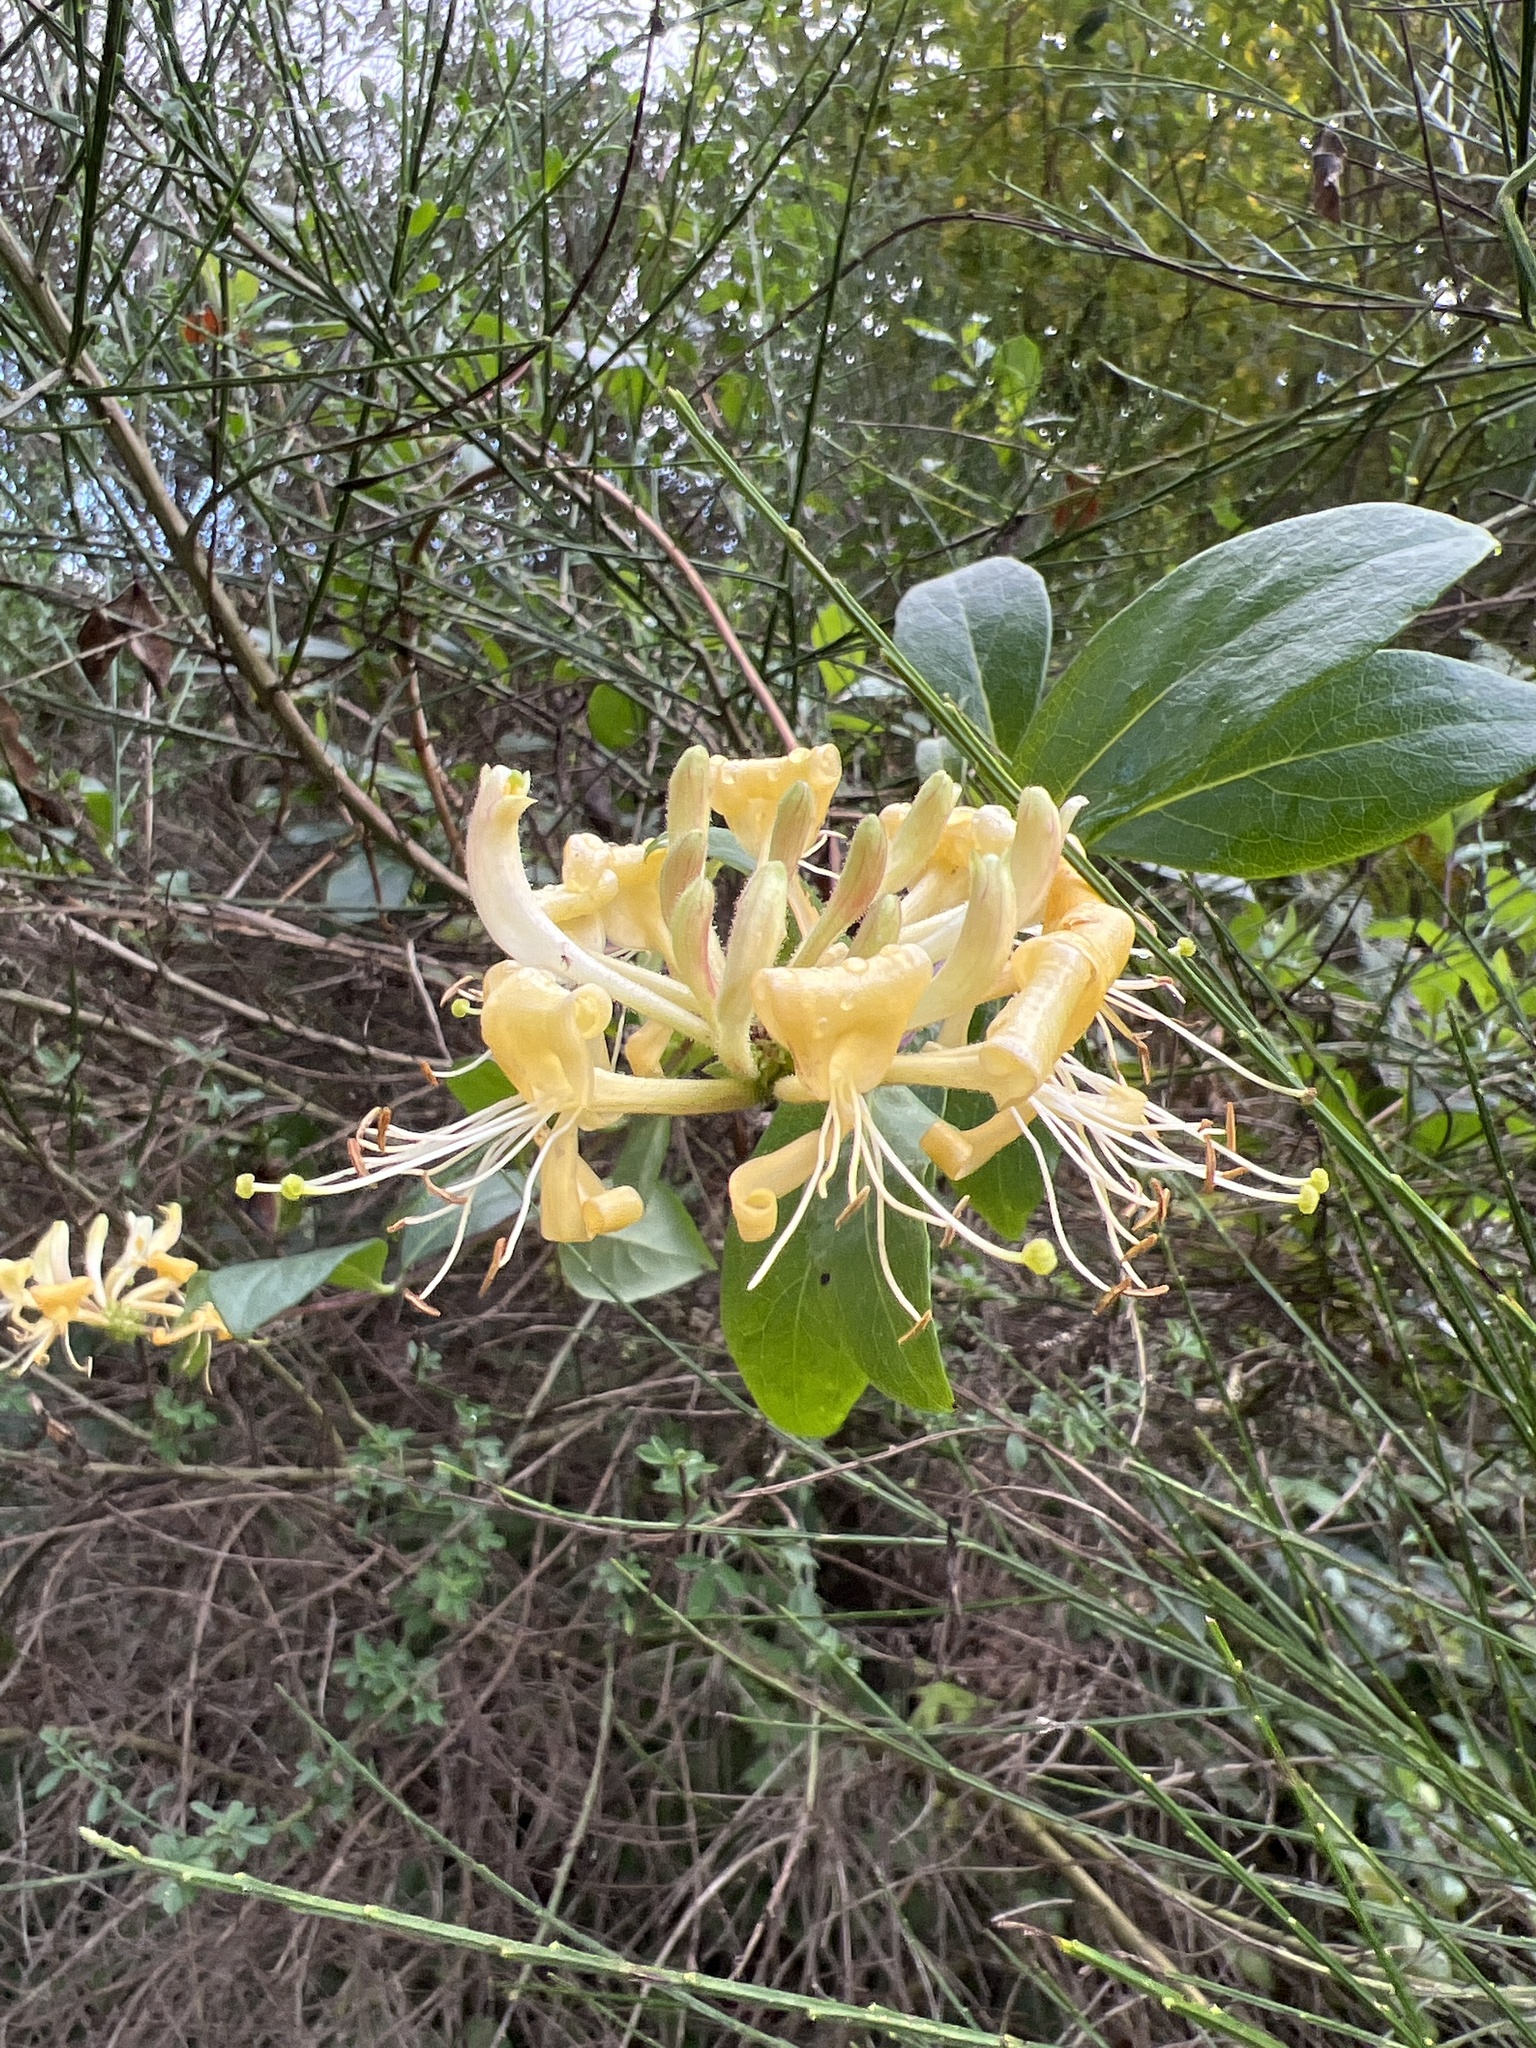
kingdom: Plantae
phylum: Tracheophyta
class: Magnoliopsida
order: Dipsacales
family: Caprifoliaceae
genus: Lonicera
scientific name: Lonicera periclymenum
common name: European honeysuckle
